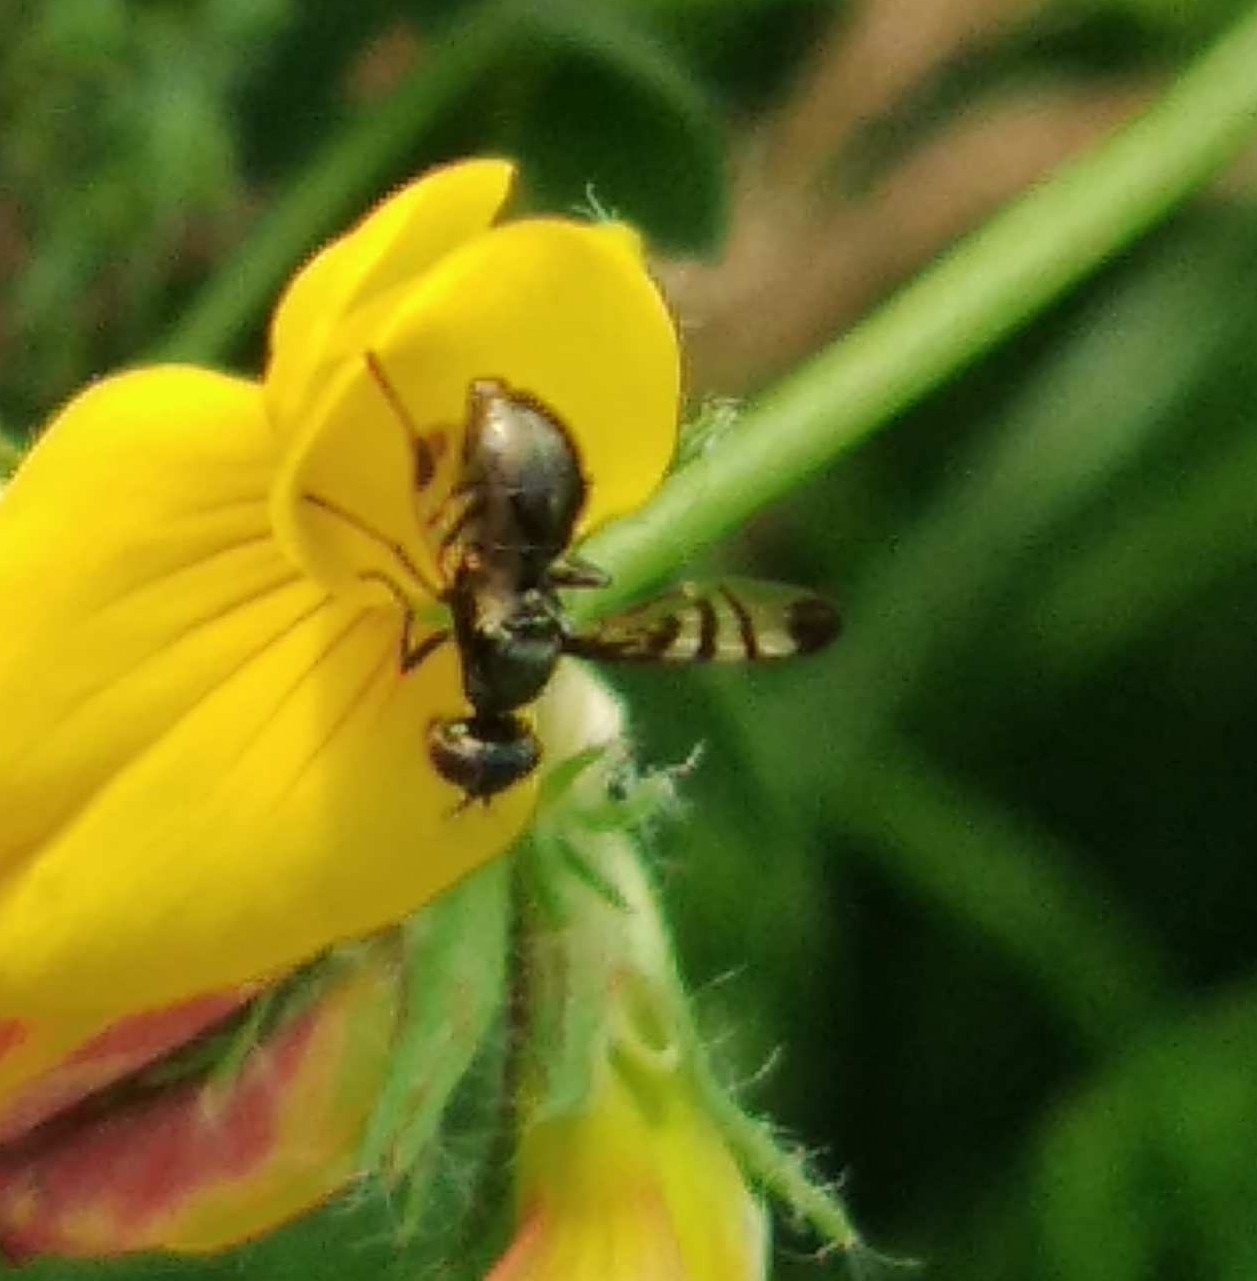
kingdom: Animalia
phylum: Arthropoda
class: Insecta
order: Diptera
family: Platystomatidae
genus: Rivellia
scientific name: Rivellia syngenesiae
